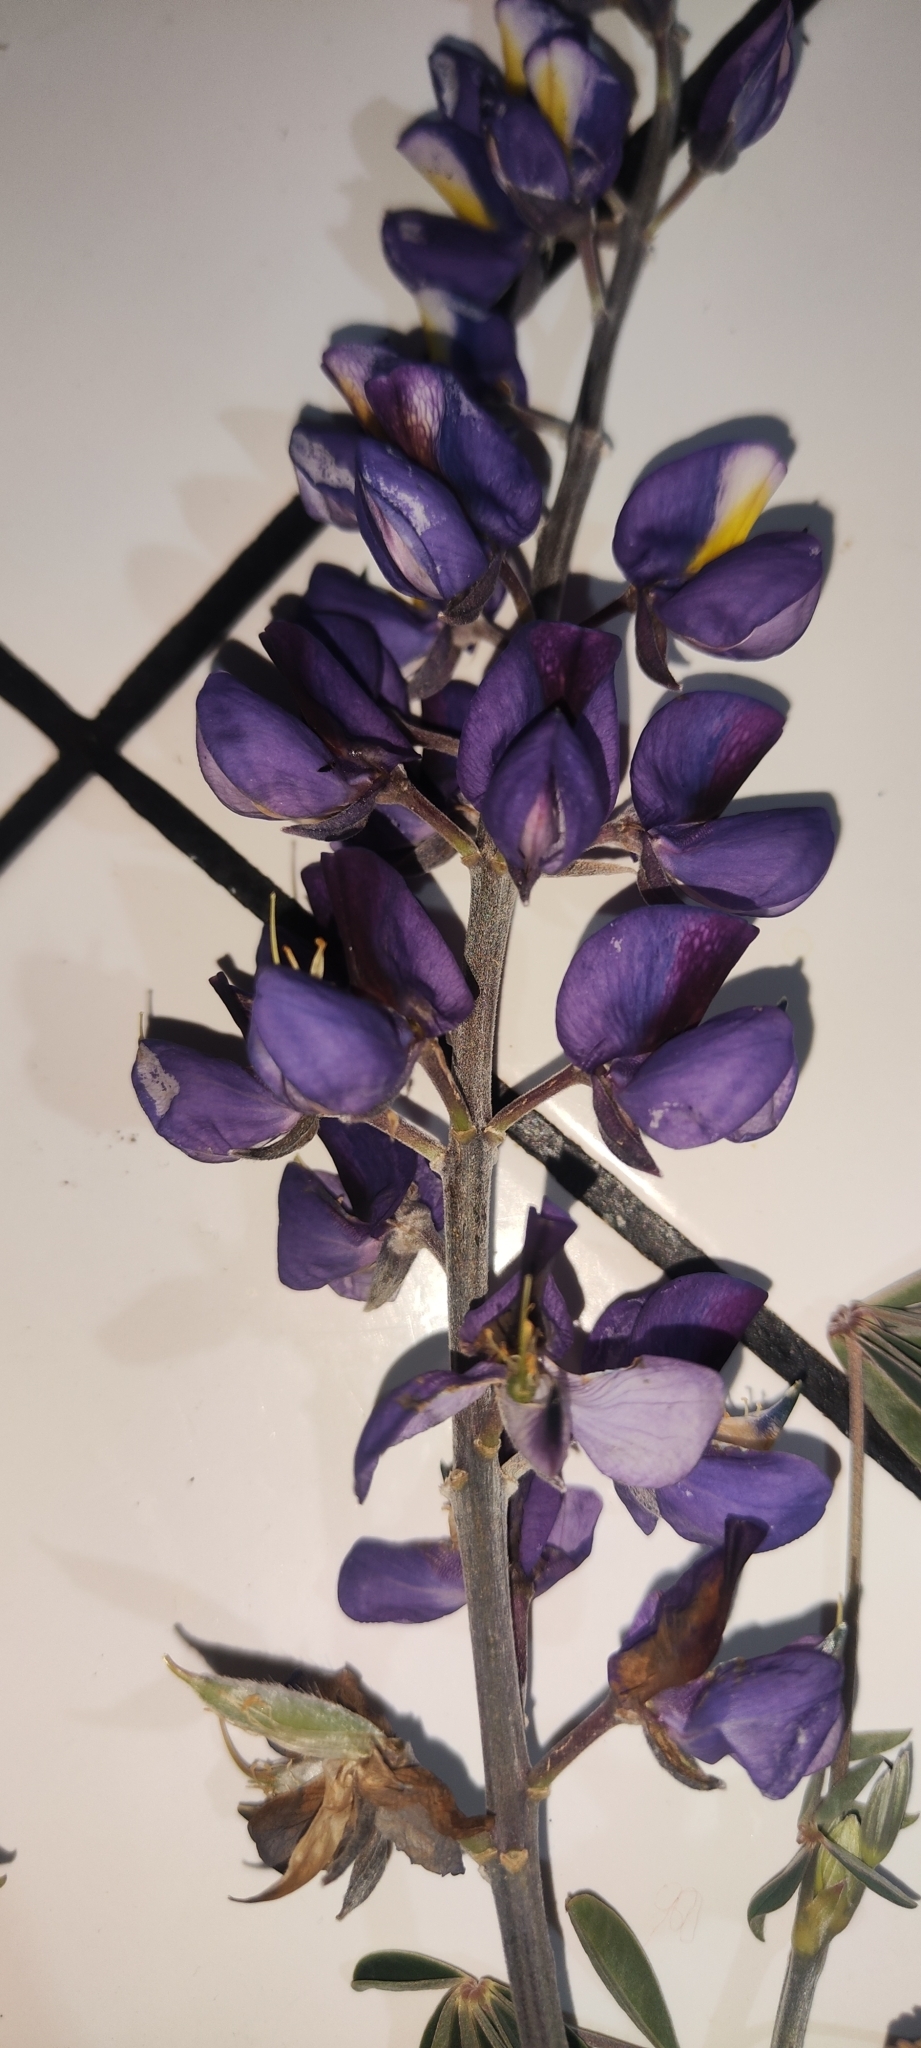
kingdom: Plantae
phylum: Tracheophyta
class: Magnoliopsida
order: Fabales
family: Fabaceae
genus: Lupinus
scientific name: Lupinus semperflorens
